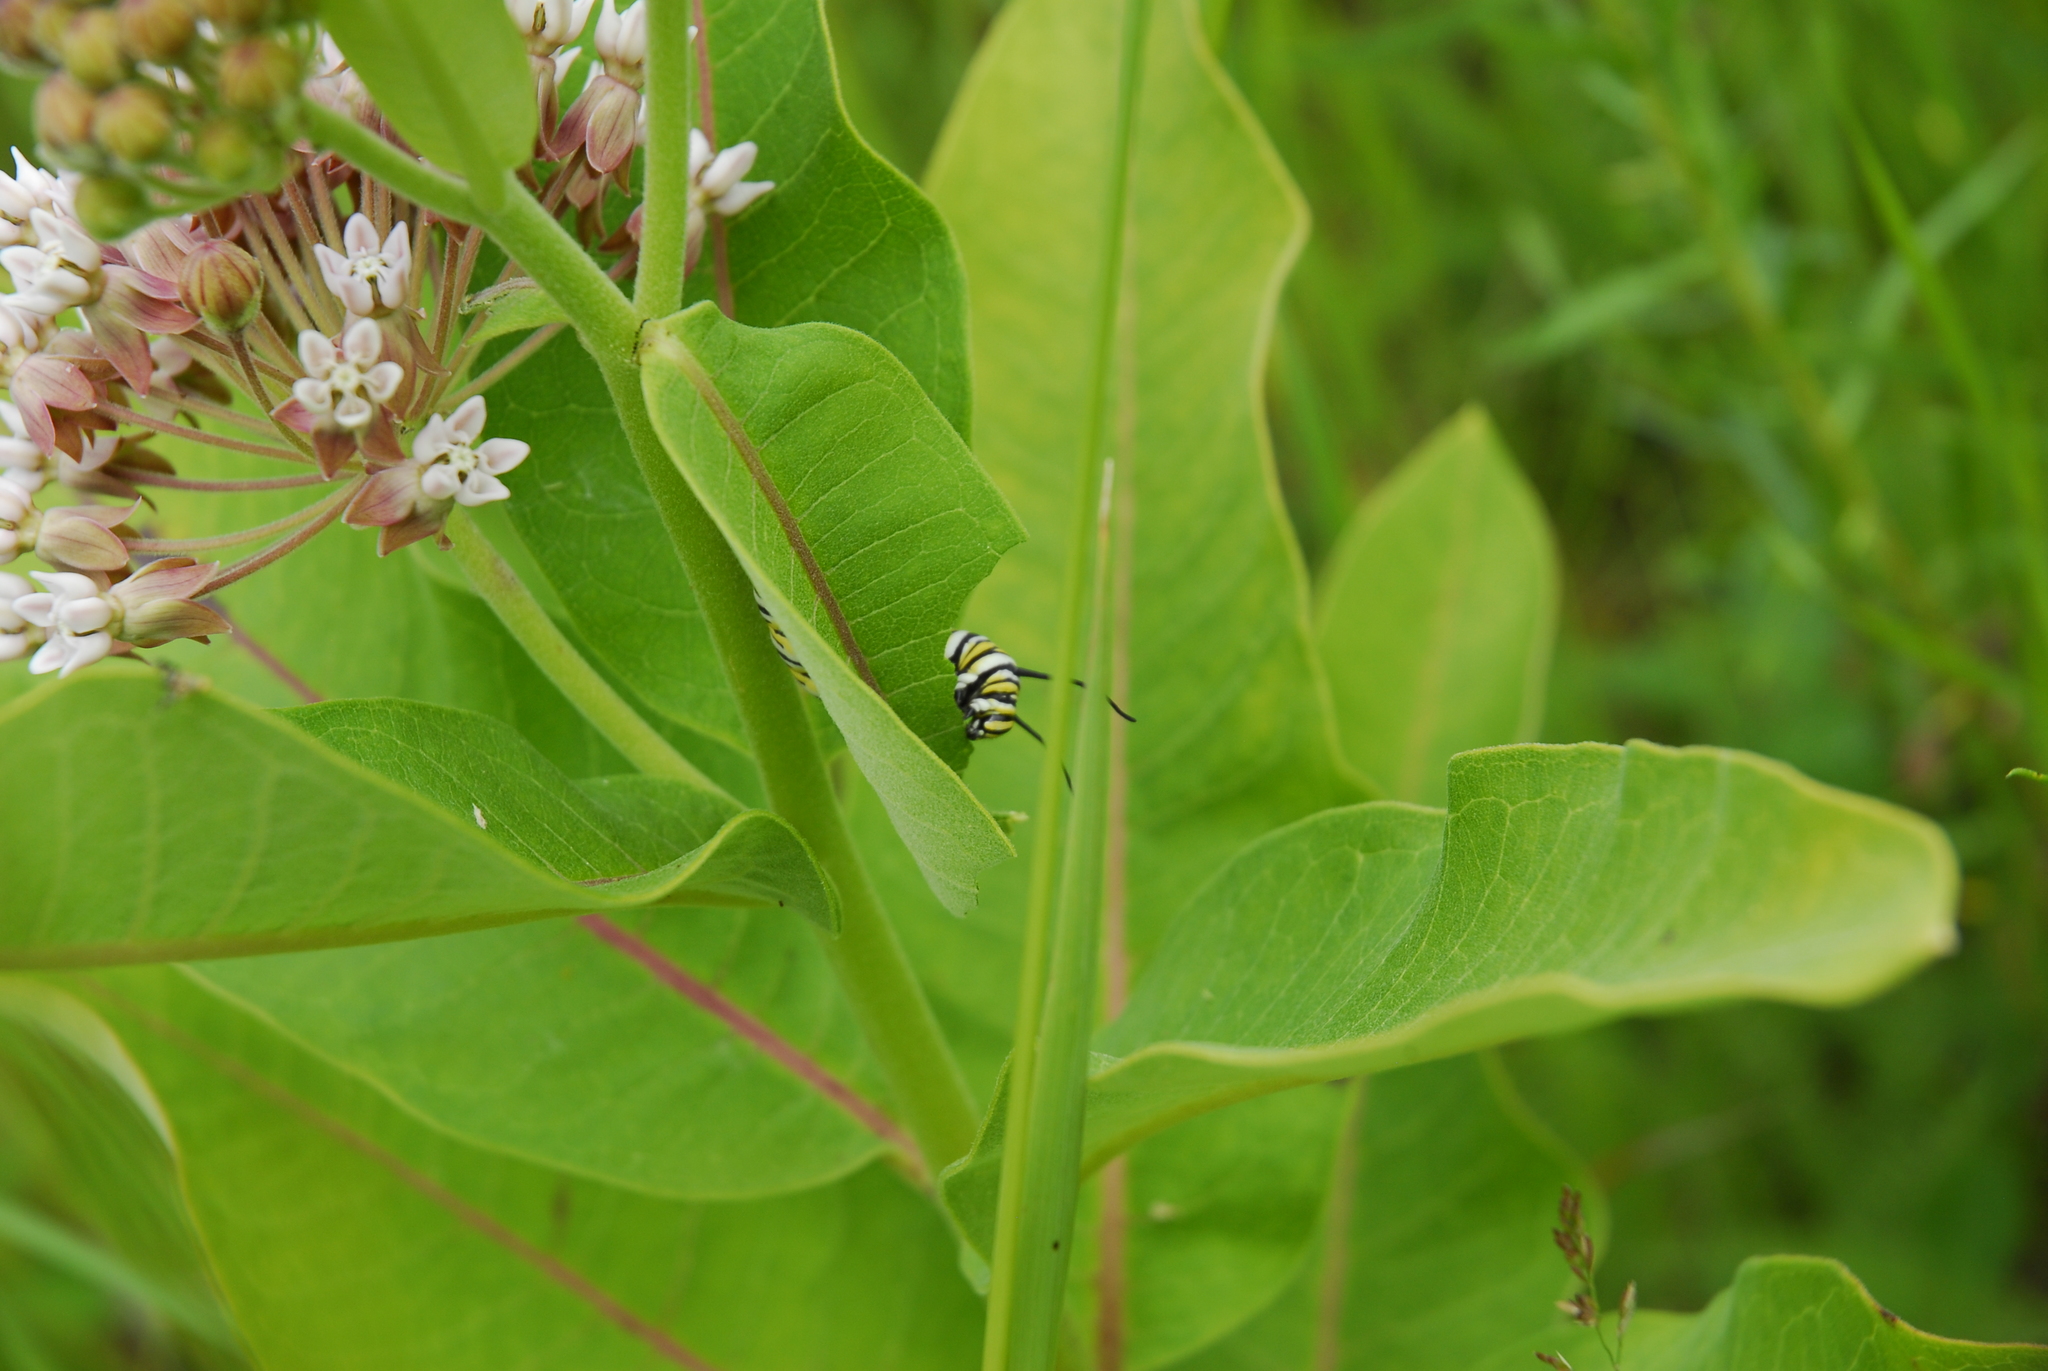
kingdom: Animalia
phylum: Arthropoda
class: Insecta
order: Lepidoptera
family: Nymphalidae
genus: Danaus
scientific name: Danaus plexippus
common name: Monarch
